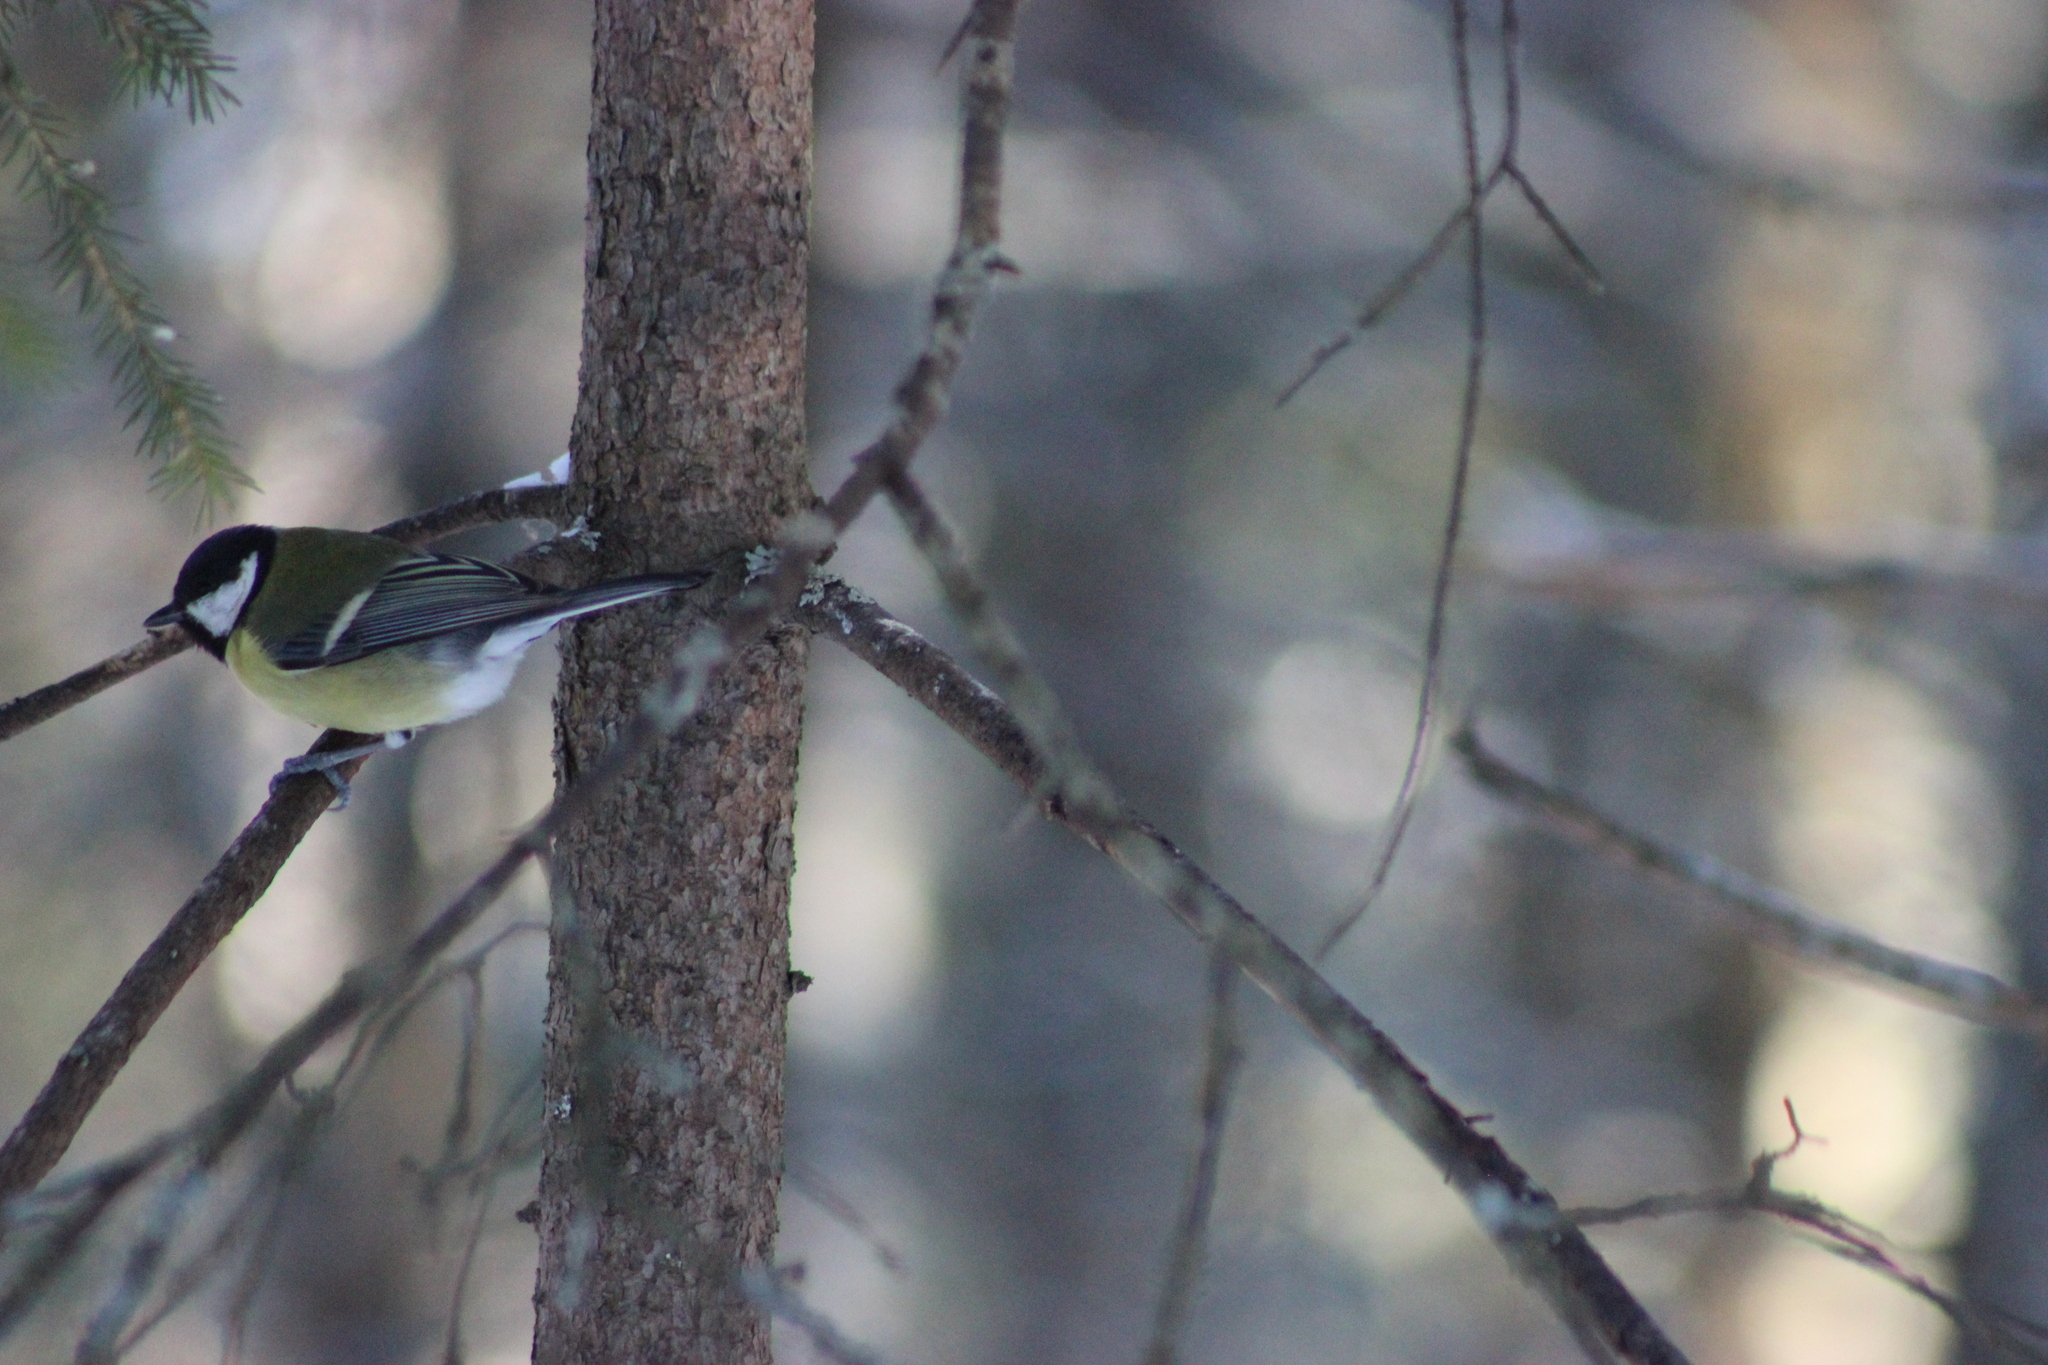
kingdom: Animalia
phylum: Chordata
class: Aves
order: Passeriformes
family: Paridae
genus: Parus
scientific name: Parus major
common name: Great tit
